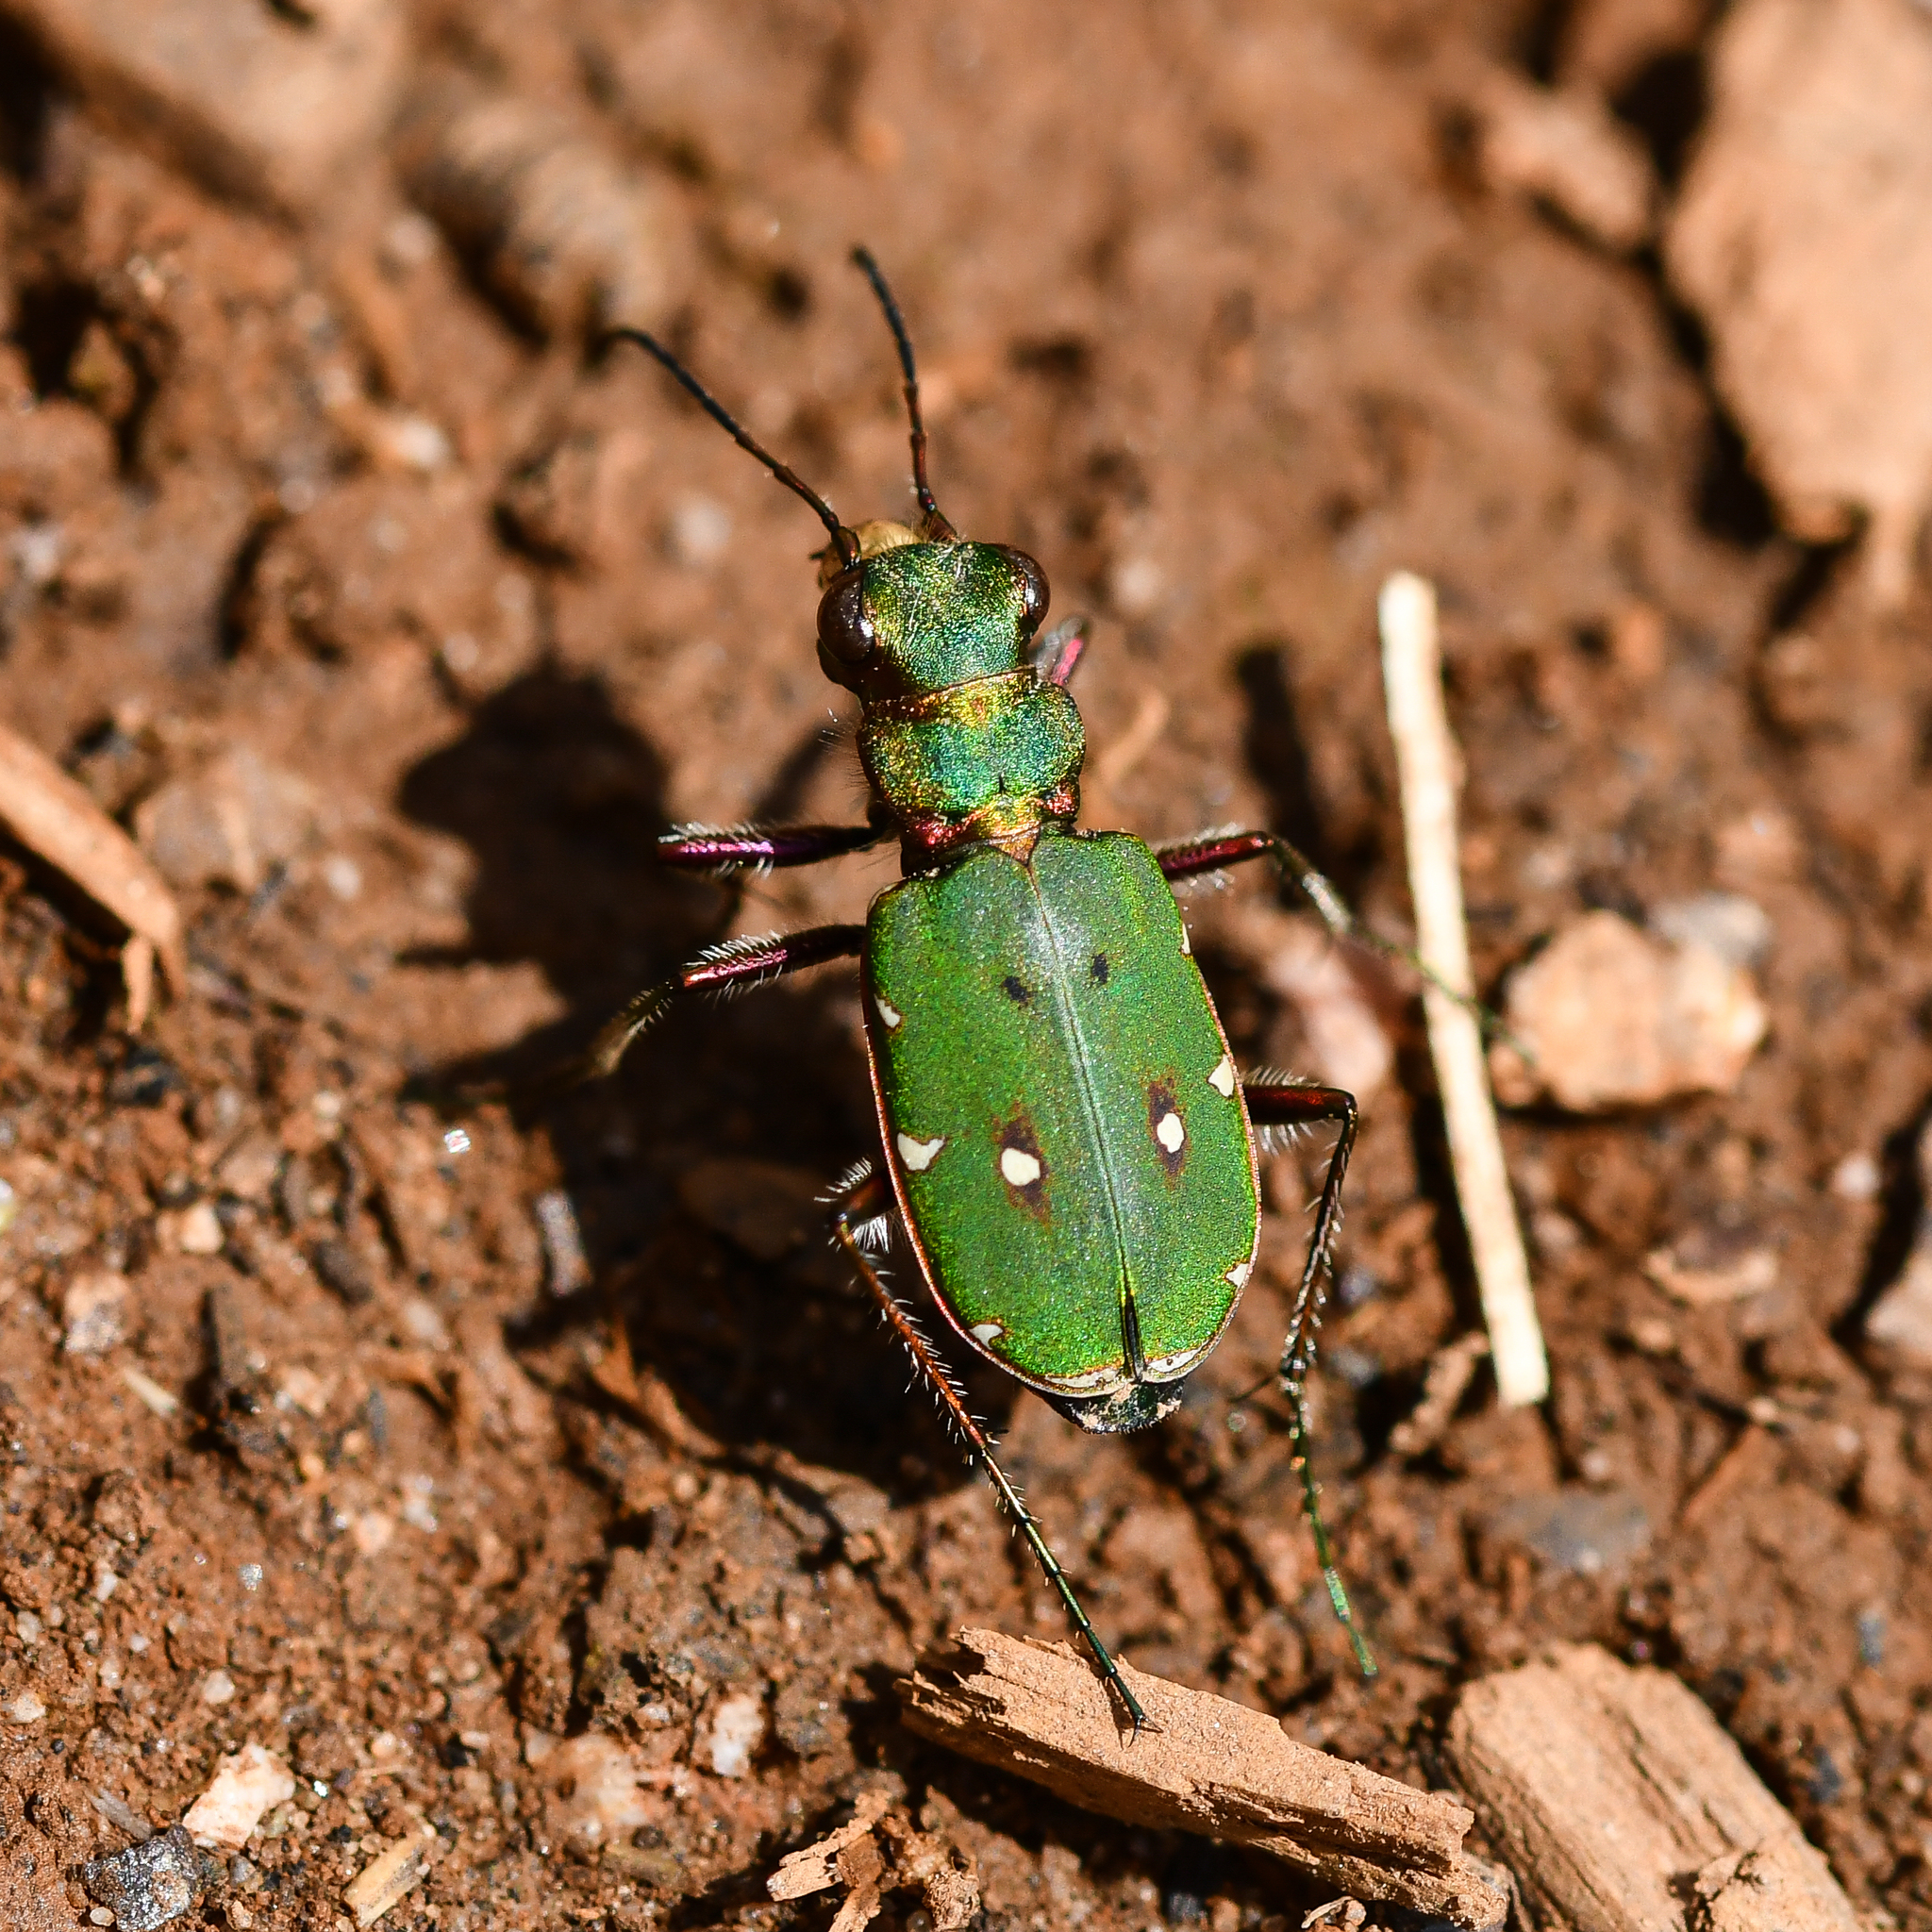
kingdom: Animalia
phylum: Arthropoda
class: Insecta
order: Coleoptera
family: Carabidae
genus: Cicindela
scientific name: Cicindela campestris
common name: Common tiger beetle
